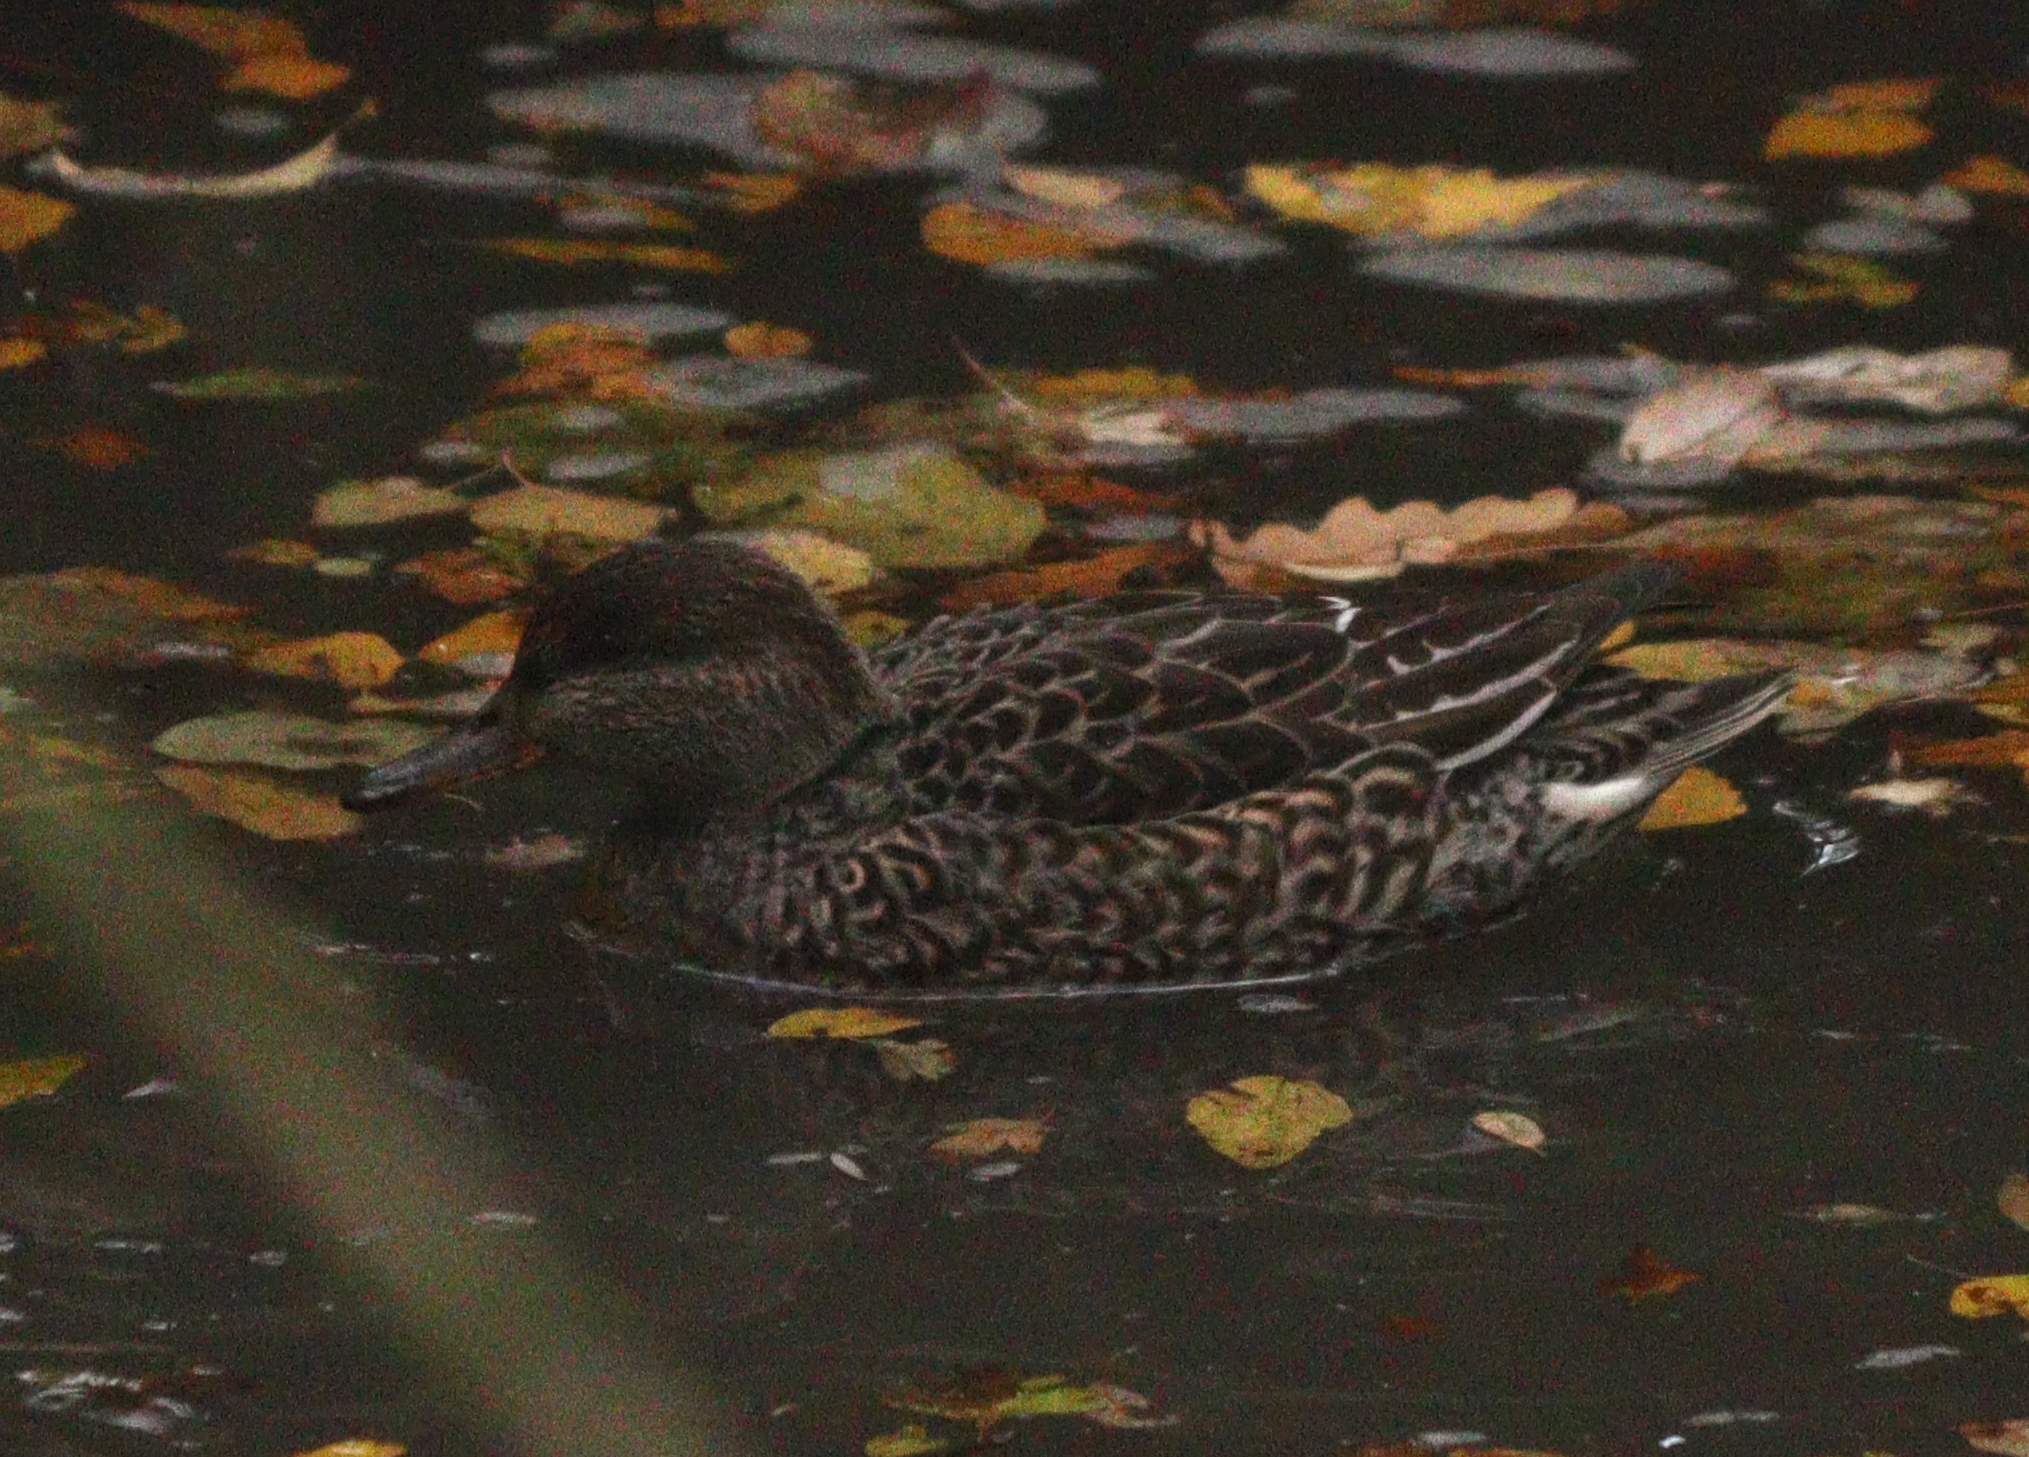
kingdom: Animalia
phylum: Chordata
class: Aves
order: Anseriformes
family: Anatidae
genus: Anas
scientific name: Anas crecca
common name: Eurasian teal
